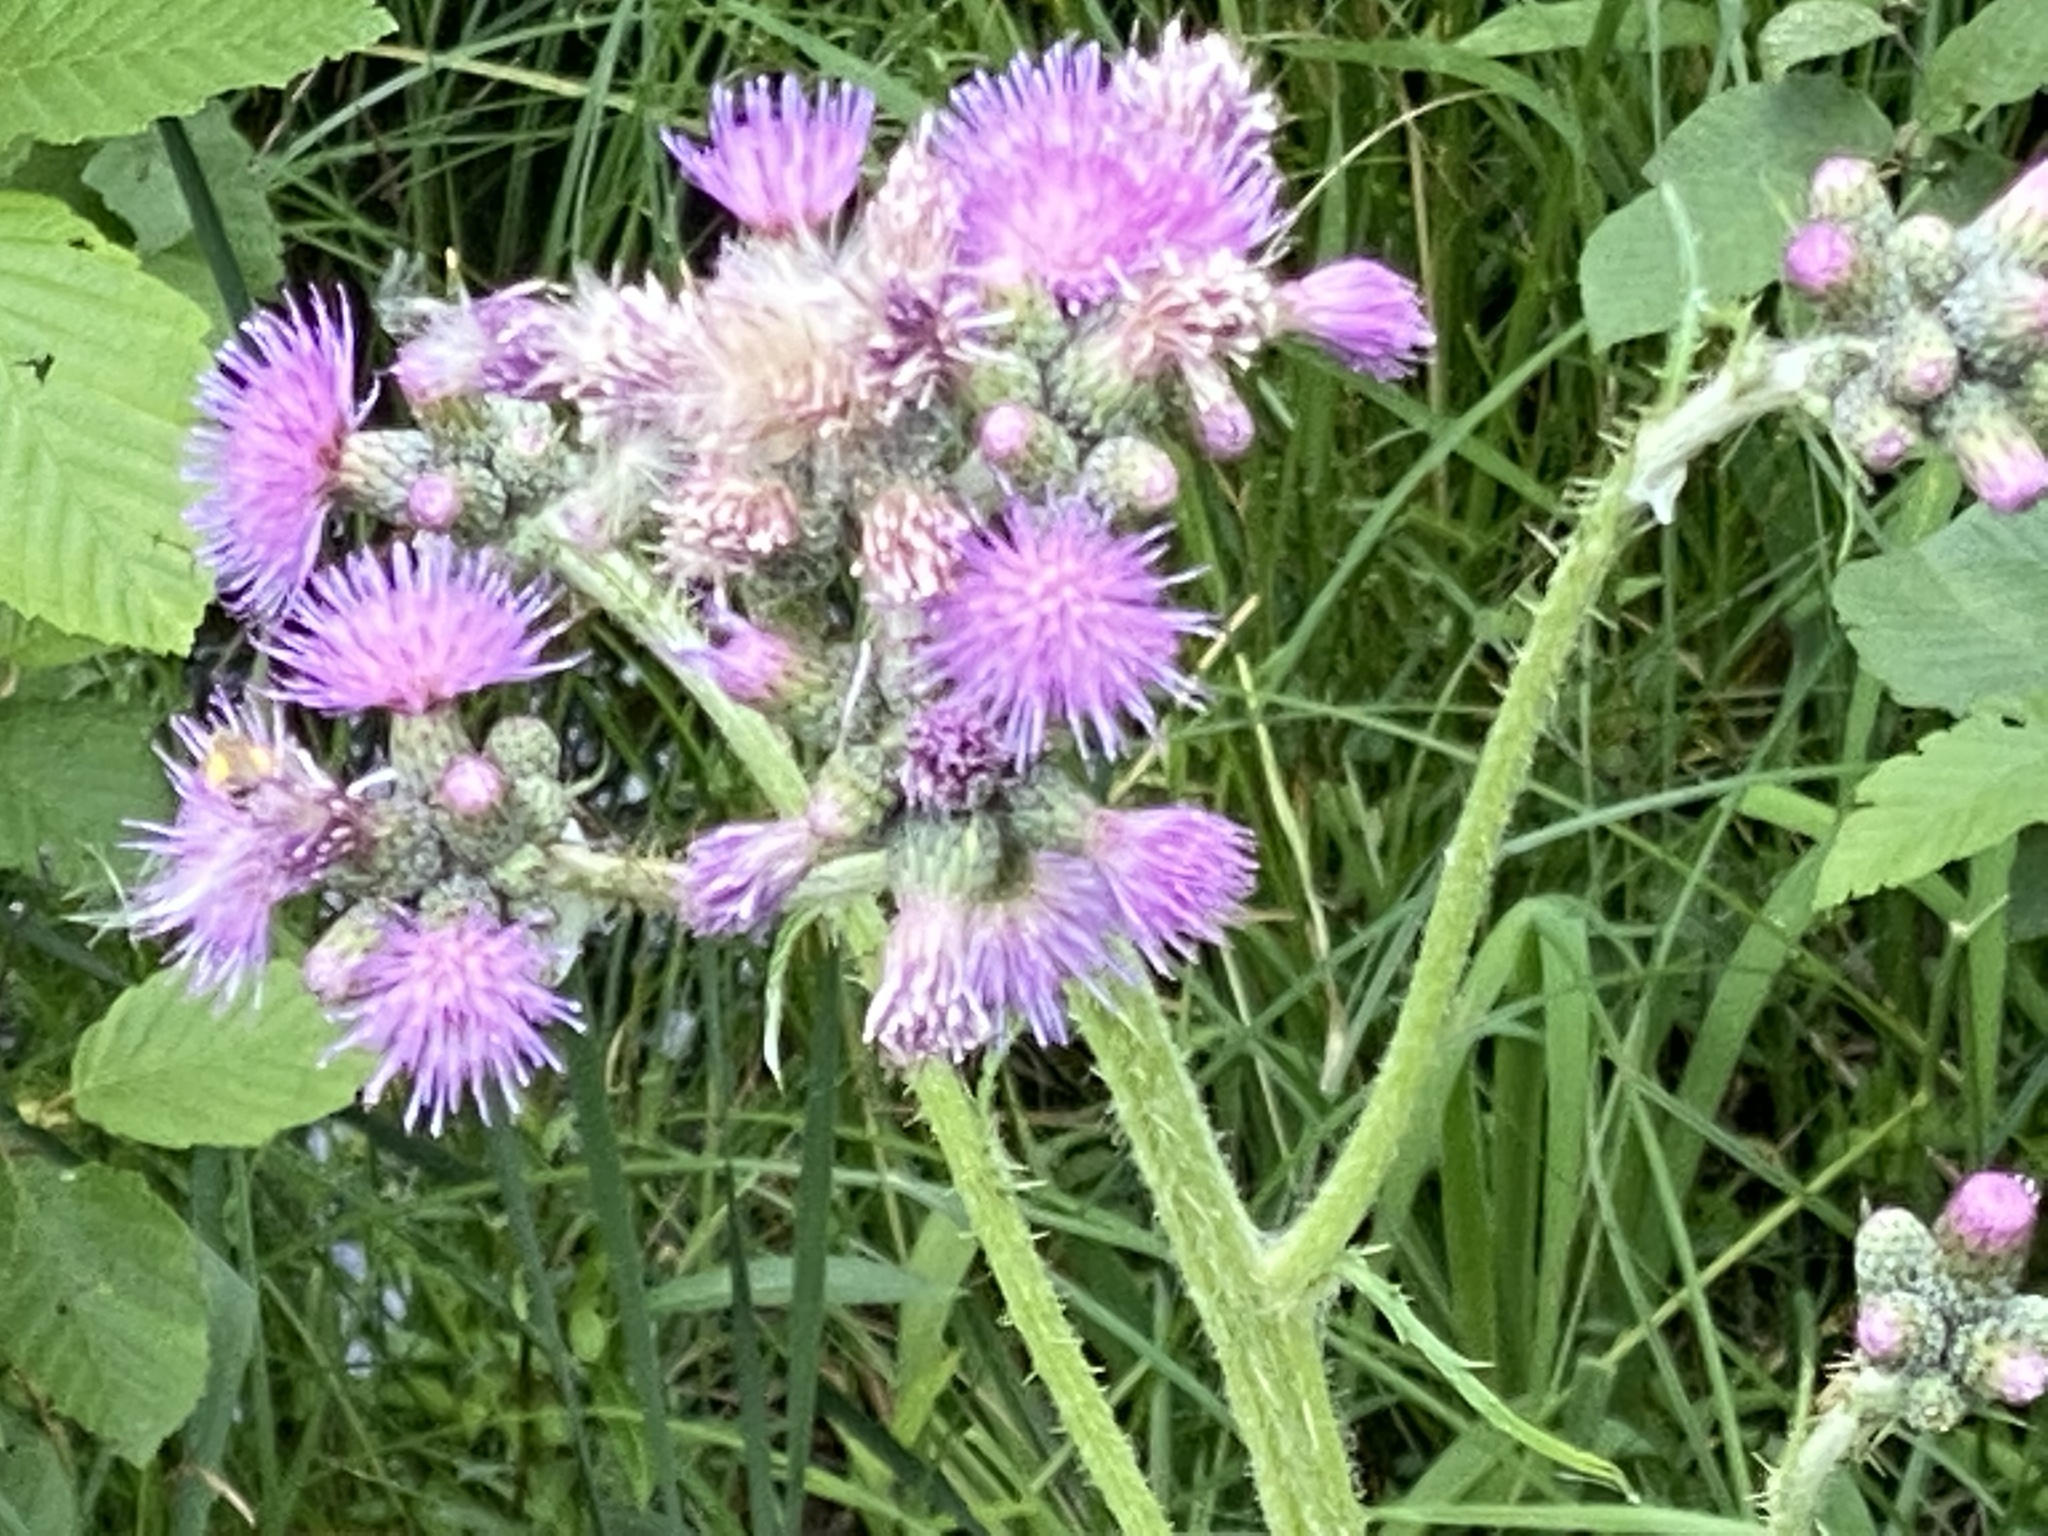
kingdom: Plantae
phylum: Tracheophyta
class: Magnoliopsida
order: Asterales
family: Asteraceae
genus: Cirsium
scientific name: Cirsium palustre
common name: Marsh thistle
